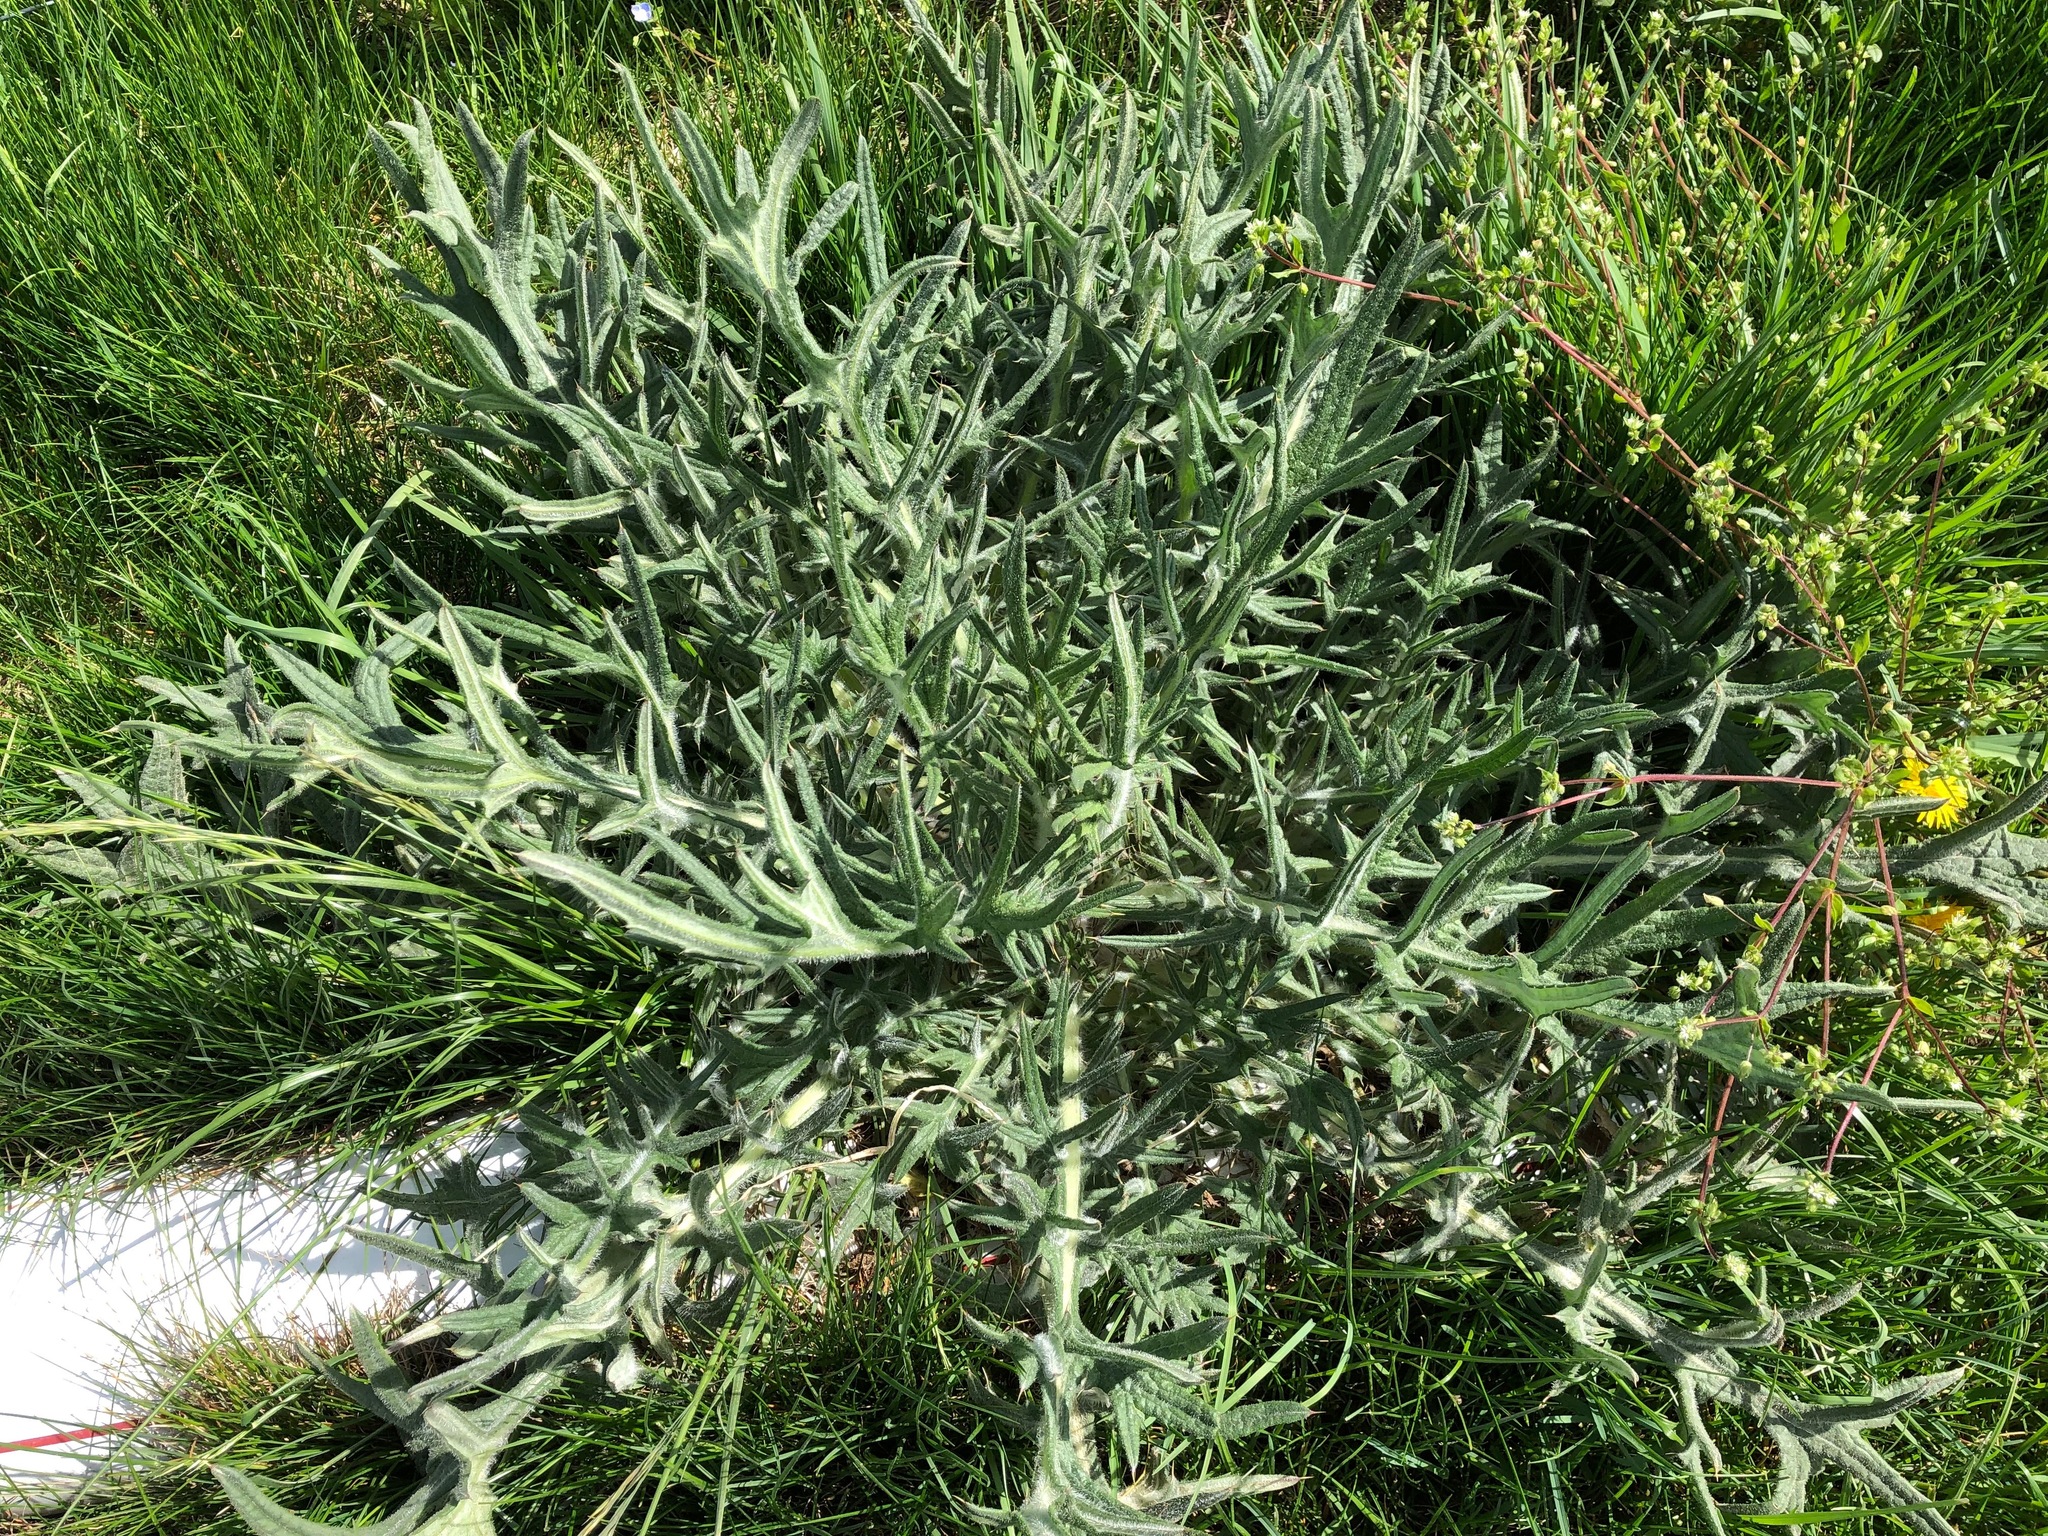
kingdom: Plantae
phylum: Tracheophyta
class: Magnoliopsida
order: Asterales
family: Asteraceae
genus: Lophiolepis
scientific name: Lophiolepis eriophora
